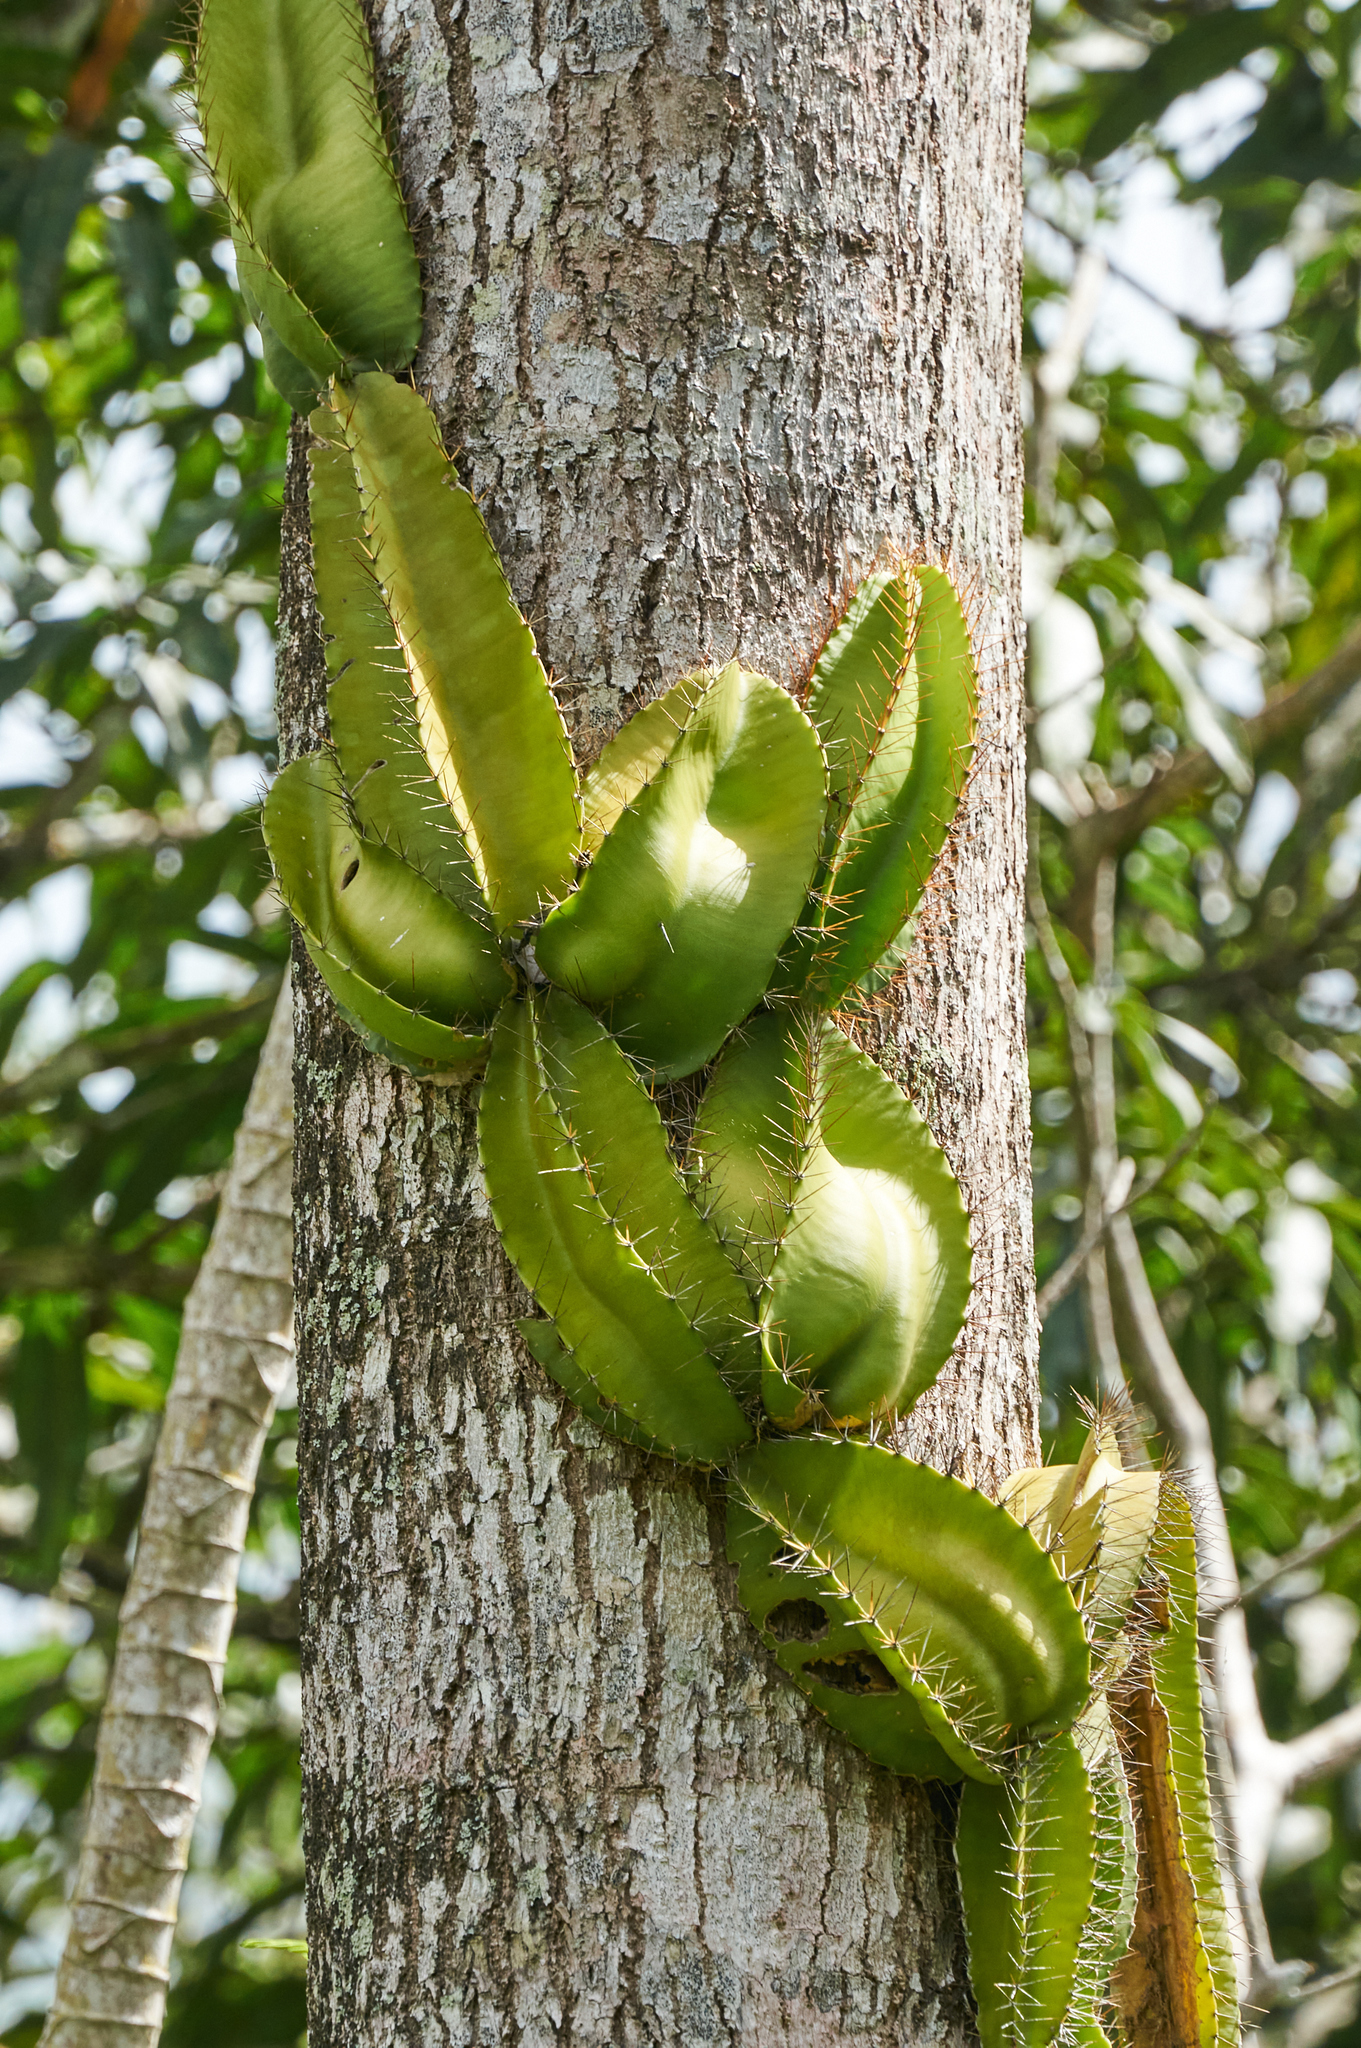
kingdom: Plantae
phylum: Tracheophyta
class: Magnoliopsida
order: Caryophyllales
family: Cactaceae
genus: Deamia
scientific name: Deamia testudo
